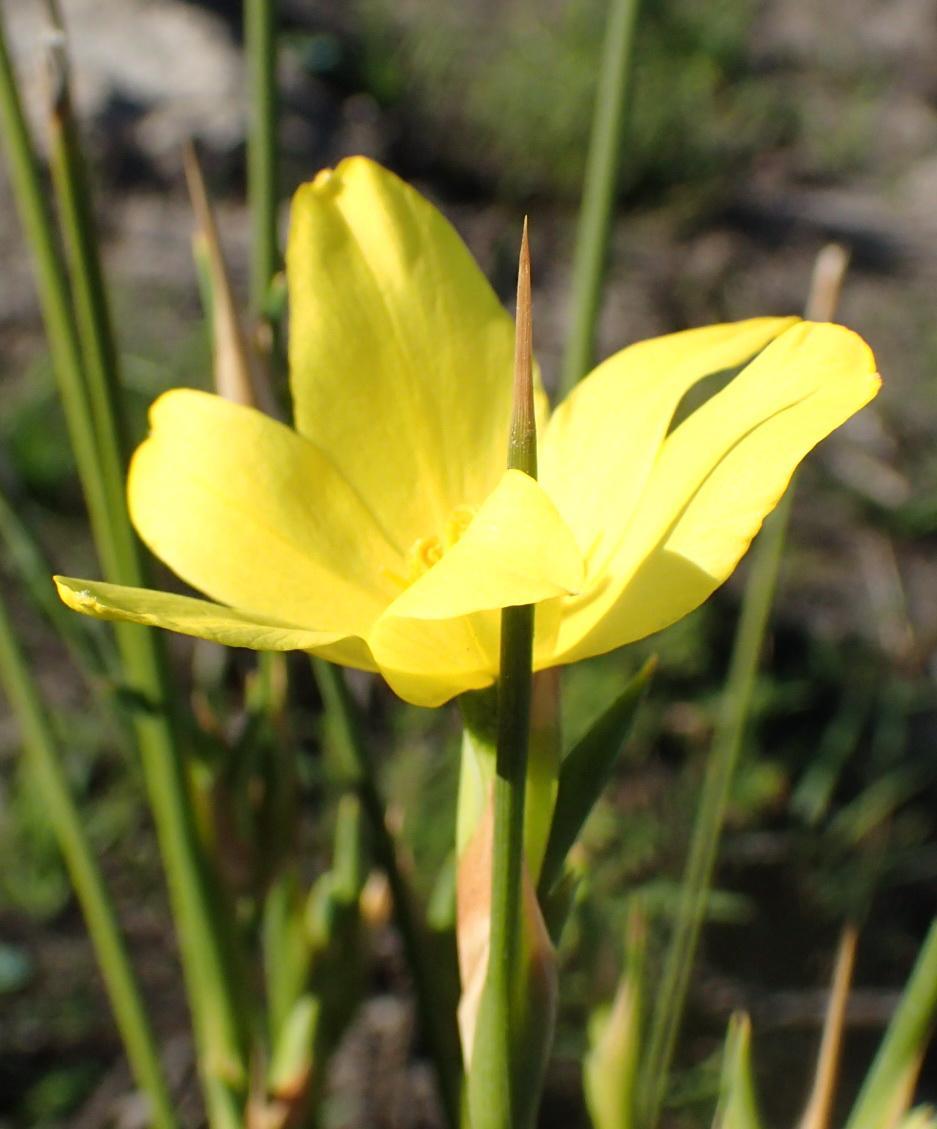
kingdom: Plantae
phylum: Tracheophyta
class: Liliopsida
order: Asparagales
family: Iridaceae
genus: Bobartia
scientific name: Bobartia aphylla
